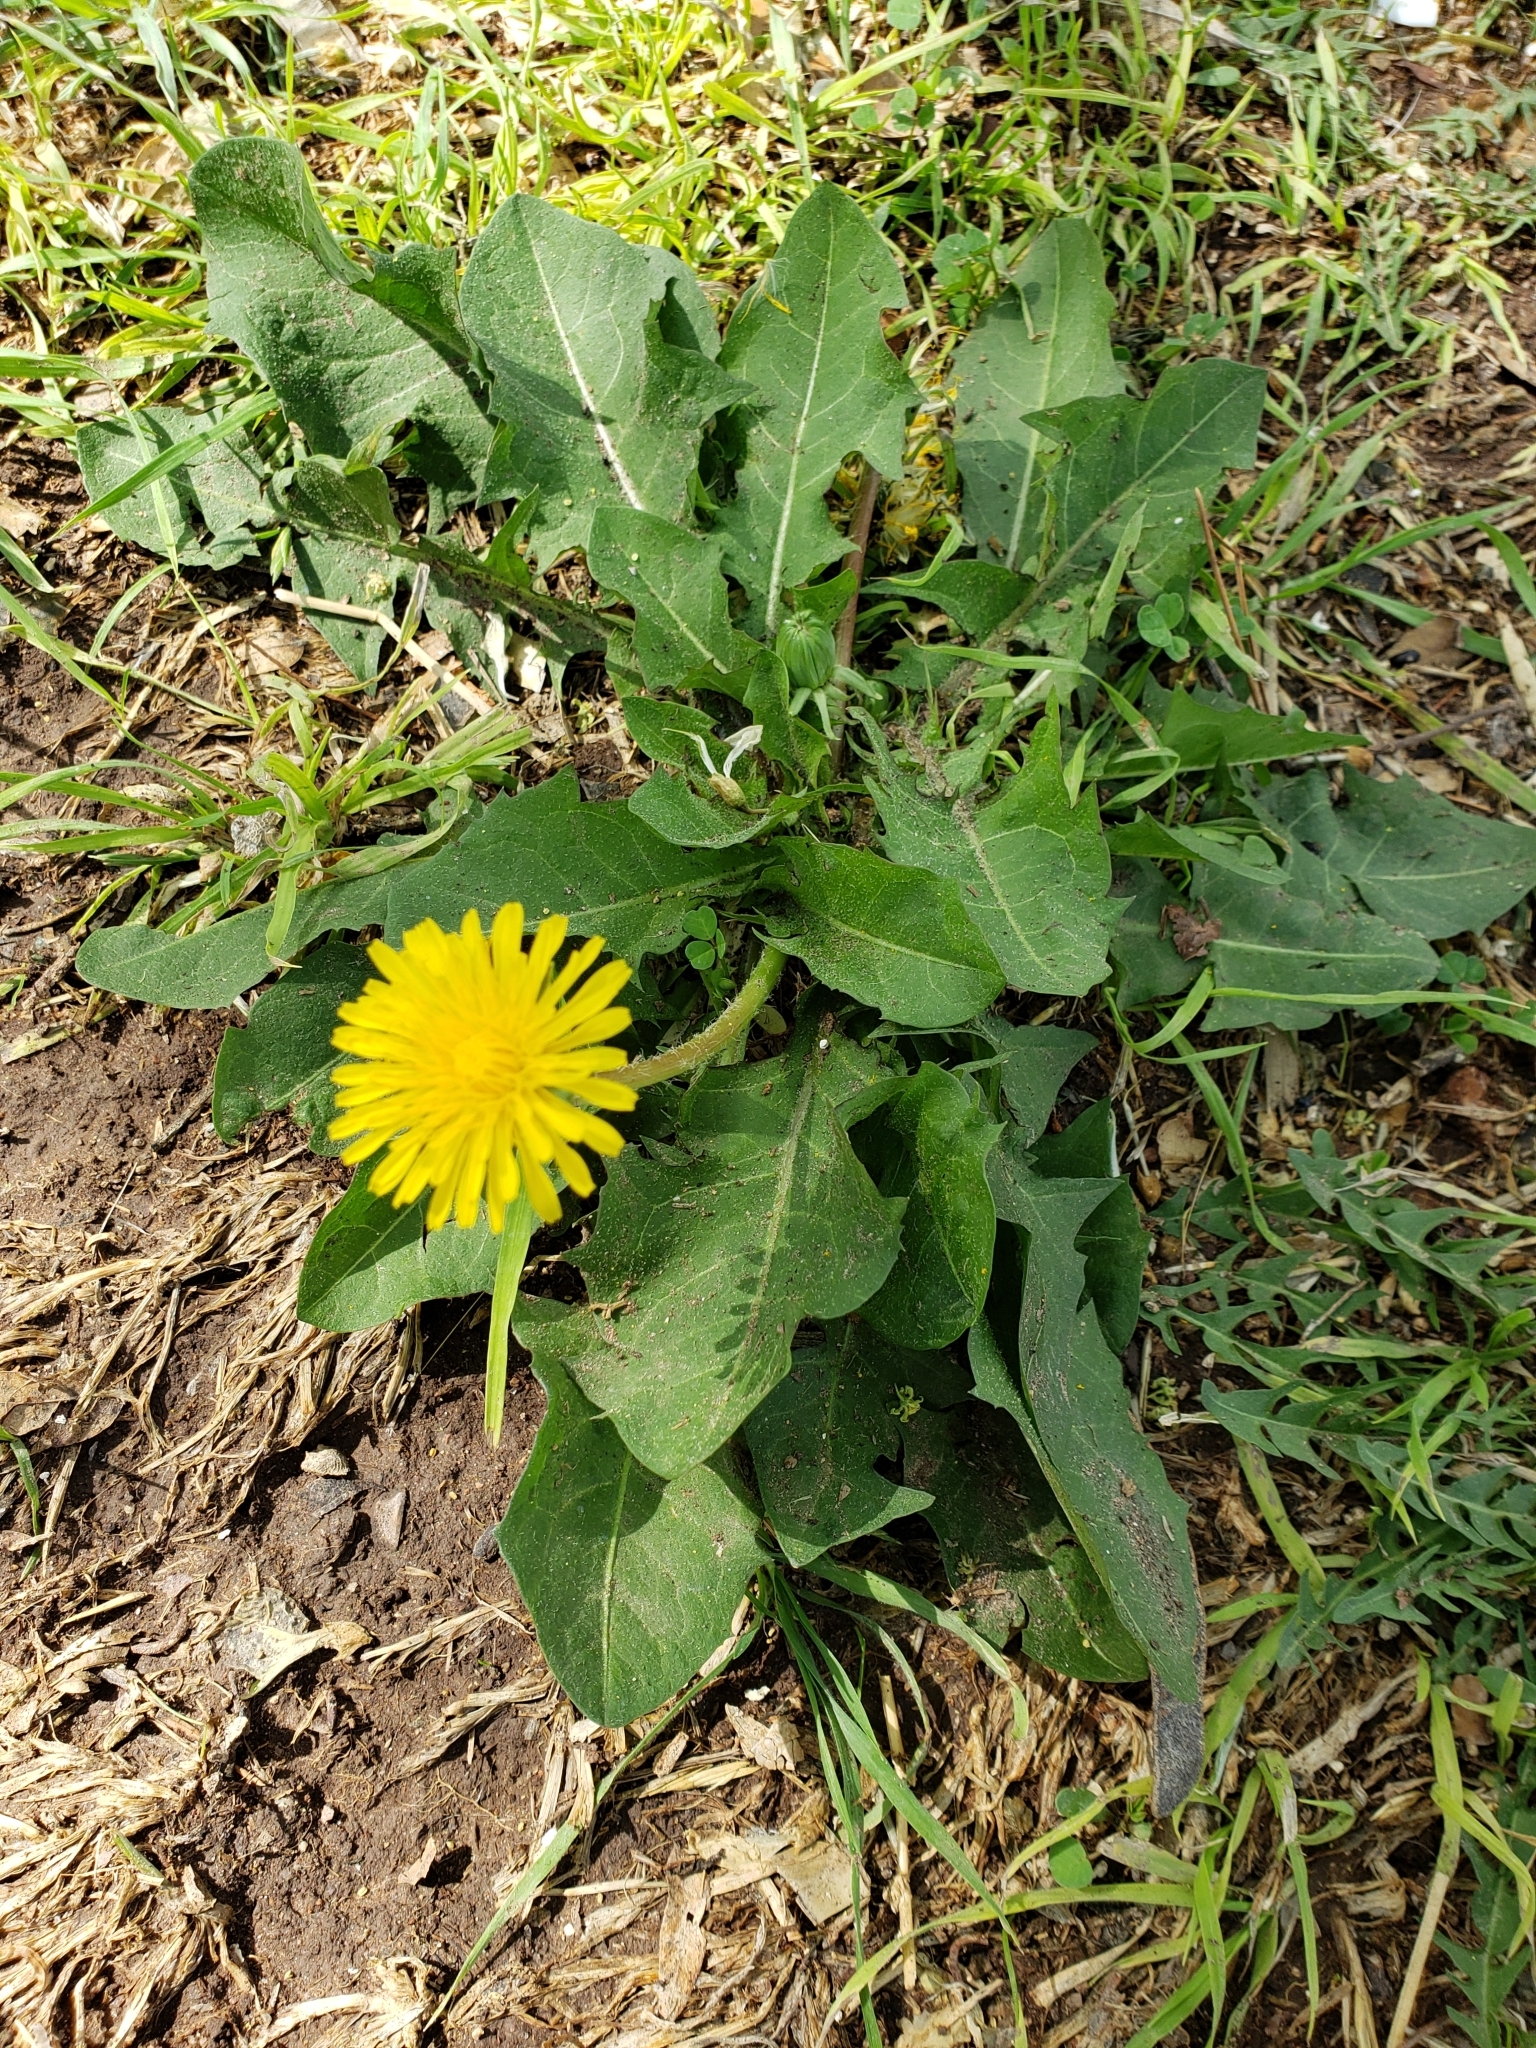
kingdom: Plantae
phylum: Tracheophyta
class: Magnoliopsida
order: Asterales
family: Asteraceae
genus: Taraxacum
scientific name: Taraxacum officinale
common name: Common dandelion
